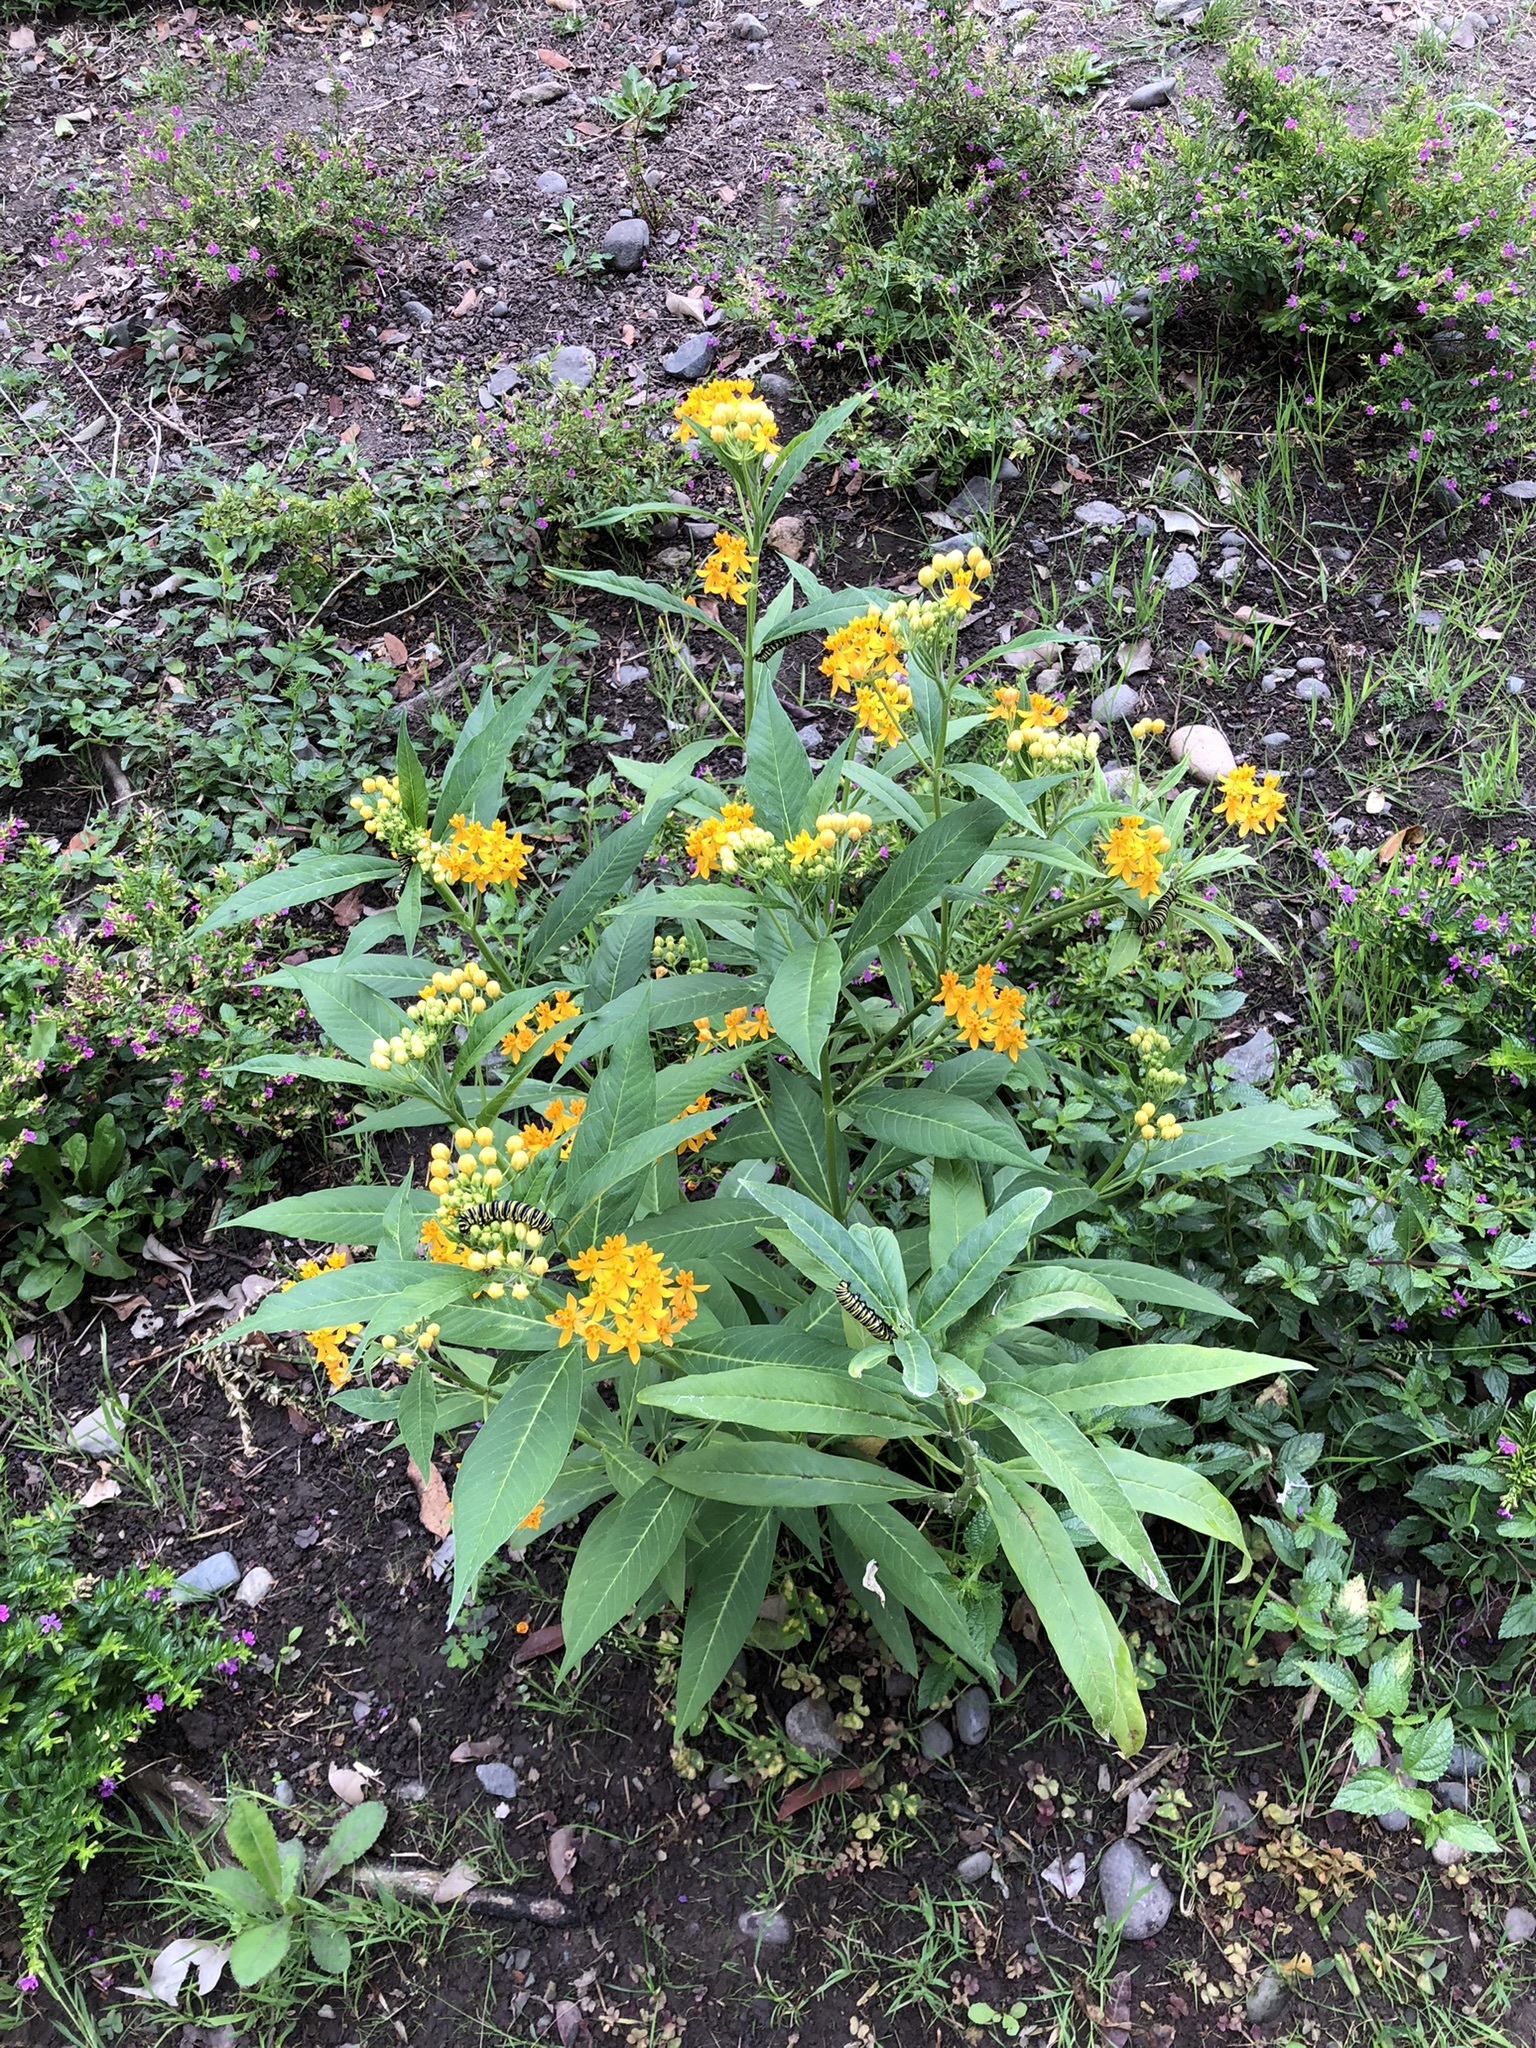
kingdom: Plantae
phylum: Tracheophyta
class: Magnoliopsida
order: Gentianales
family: Apocynaceae
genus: Asclepias
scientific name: Asclepias curassavica
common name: Bloodflower
